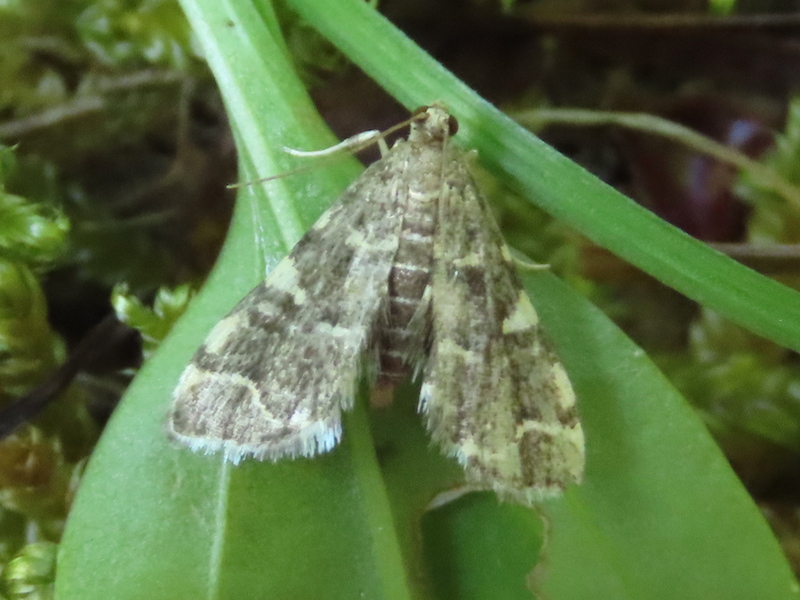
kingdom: Animalia
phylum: Arthropoda
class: Insecta
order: Lepidoptera
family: Crambidae
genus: Anageshna
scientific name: Anageshna primordialis
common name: Yellow-spotted webworm moth
